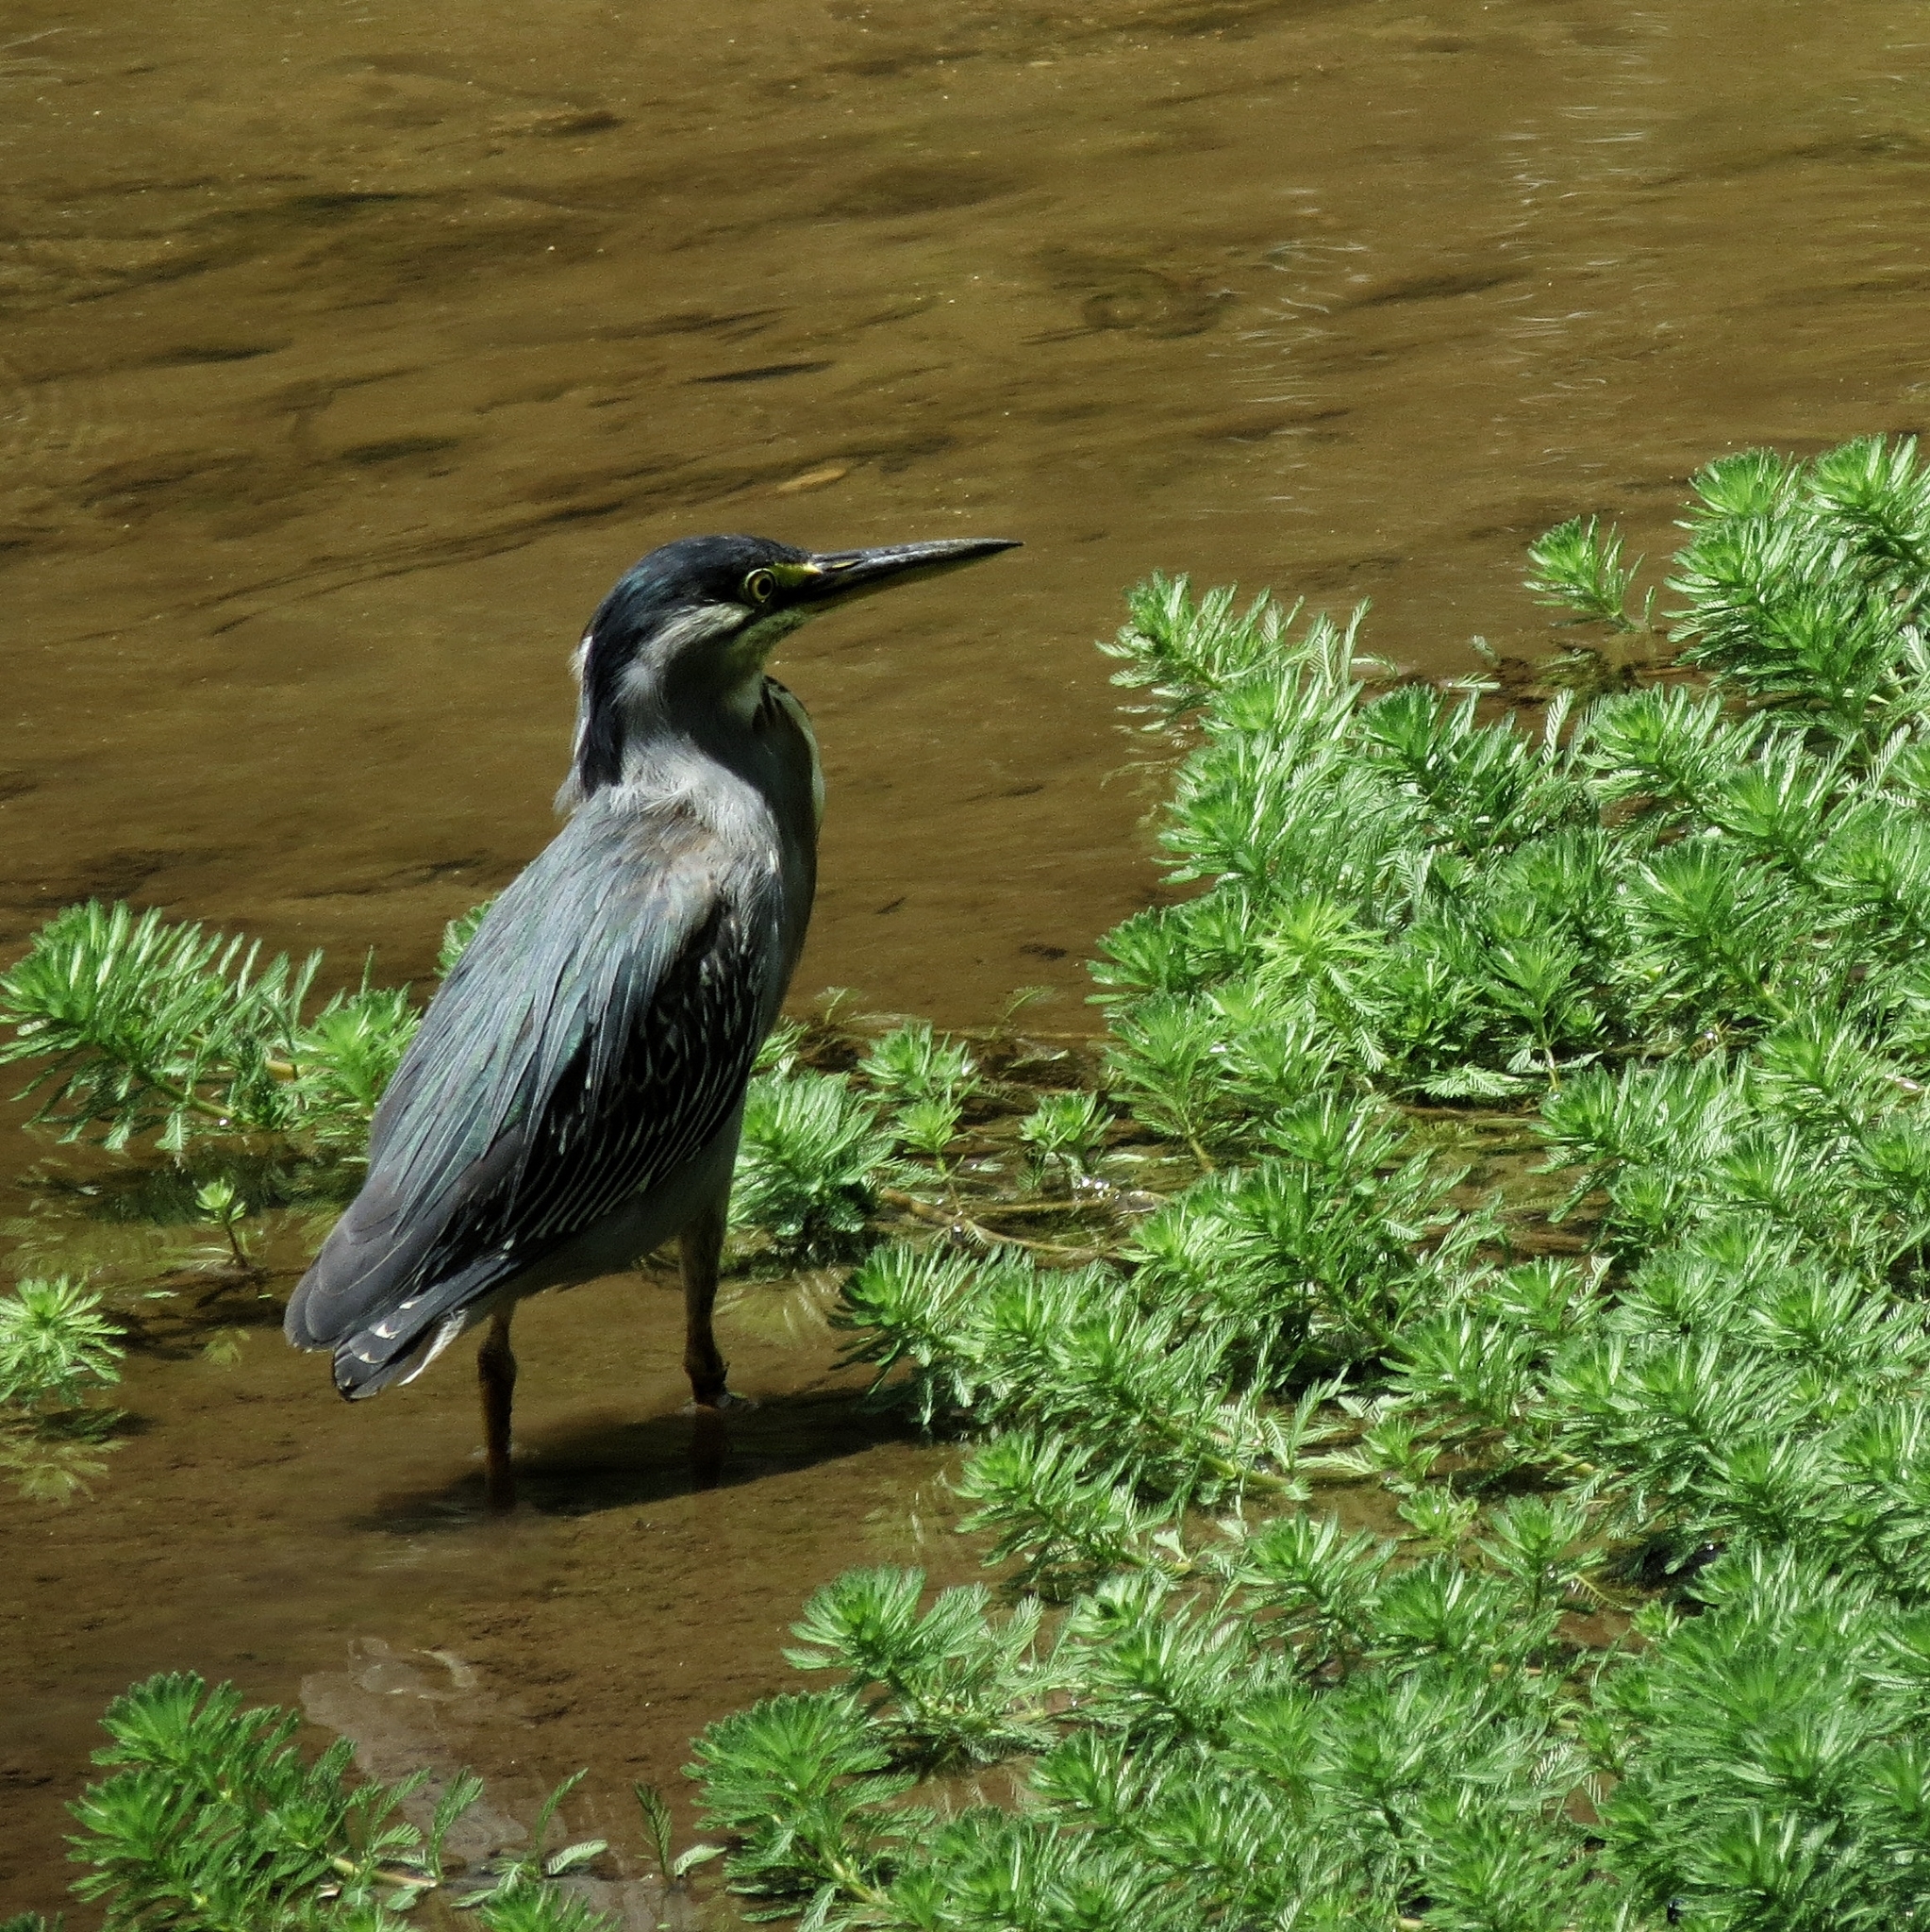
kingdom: Animalia
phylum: Chordata
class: Aves
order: Pelecaniformes
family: Ardeidae
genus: Butorides
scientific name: Butorides striata
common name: Striated heron
